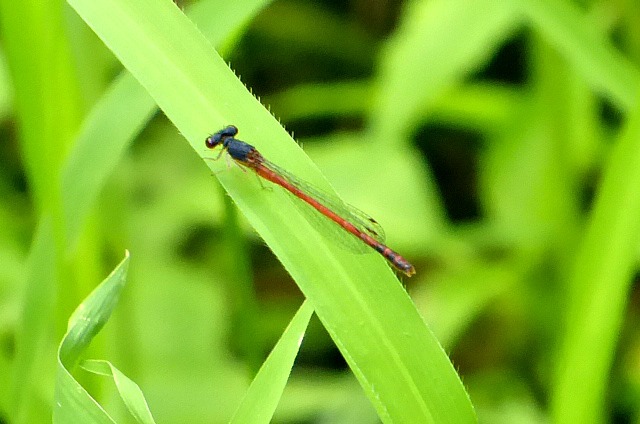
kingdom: Animalia
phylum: Arthropoda
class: Insecta
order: Odonata
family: Coenagrionidae
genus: Amphiagrion
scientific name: Amphiagrion saucium
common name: Eastern red damsel
